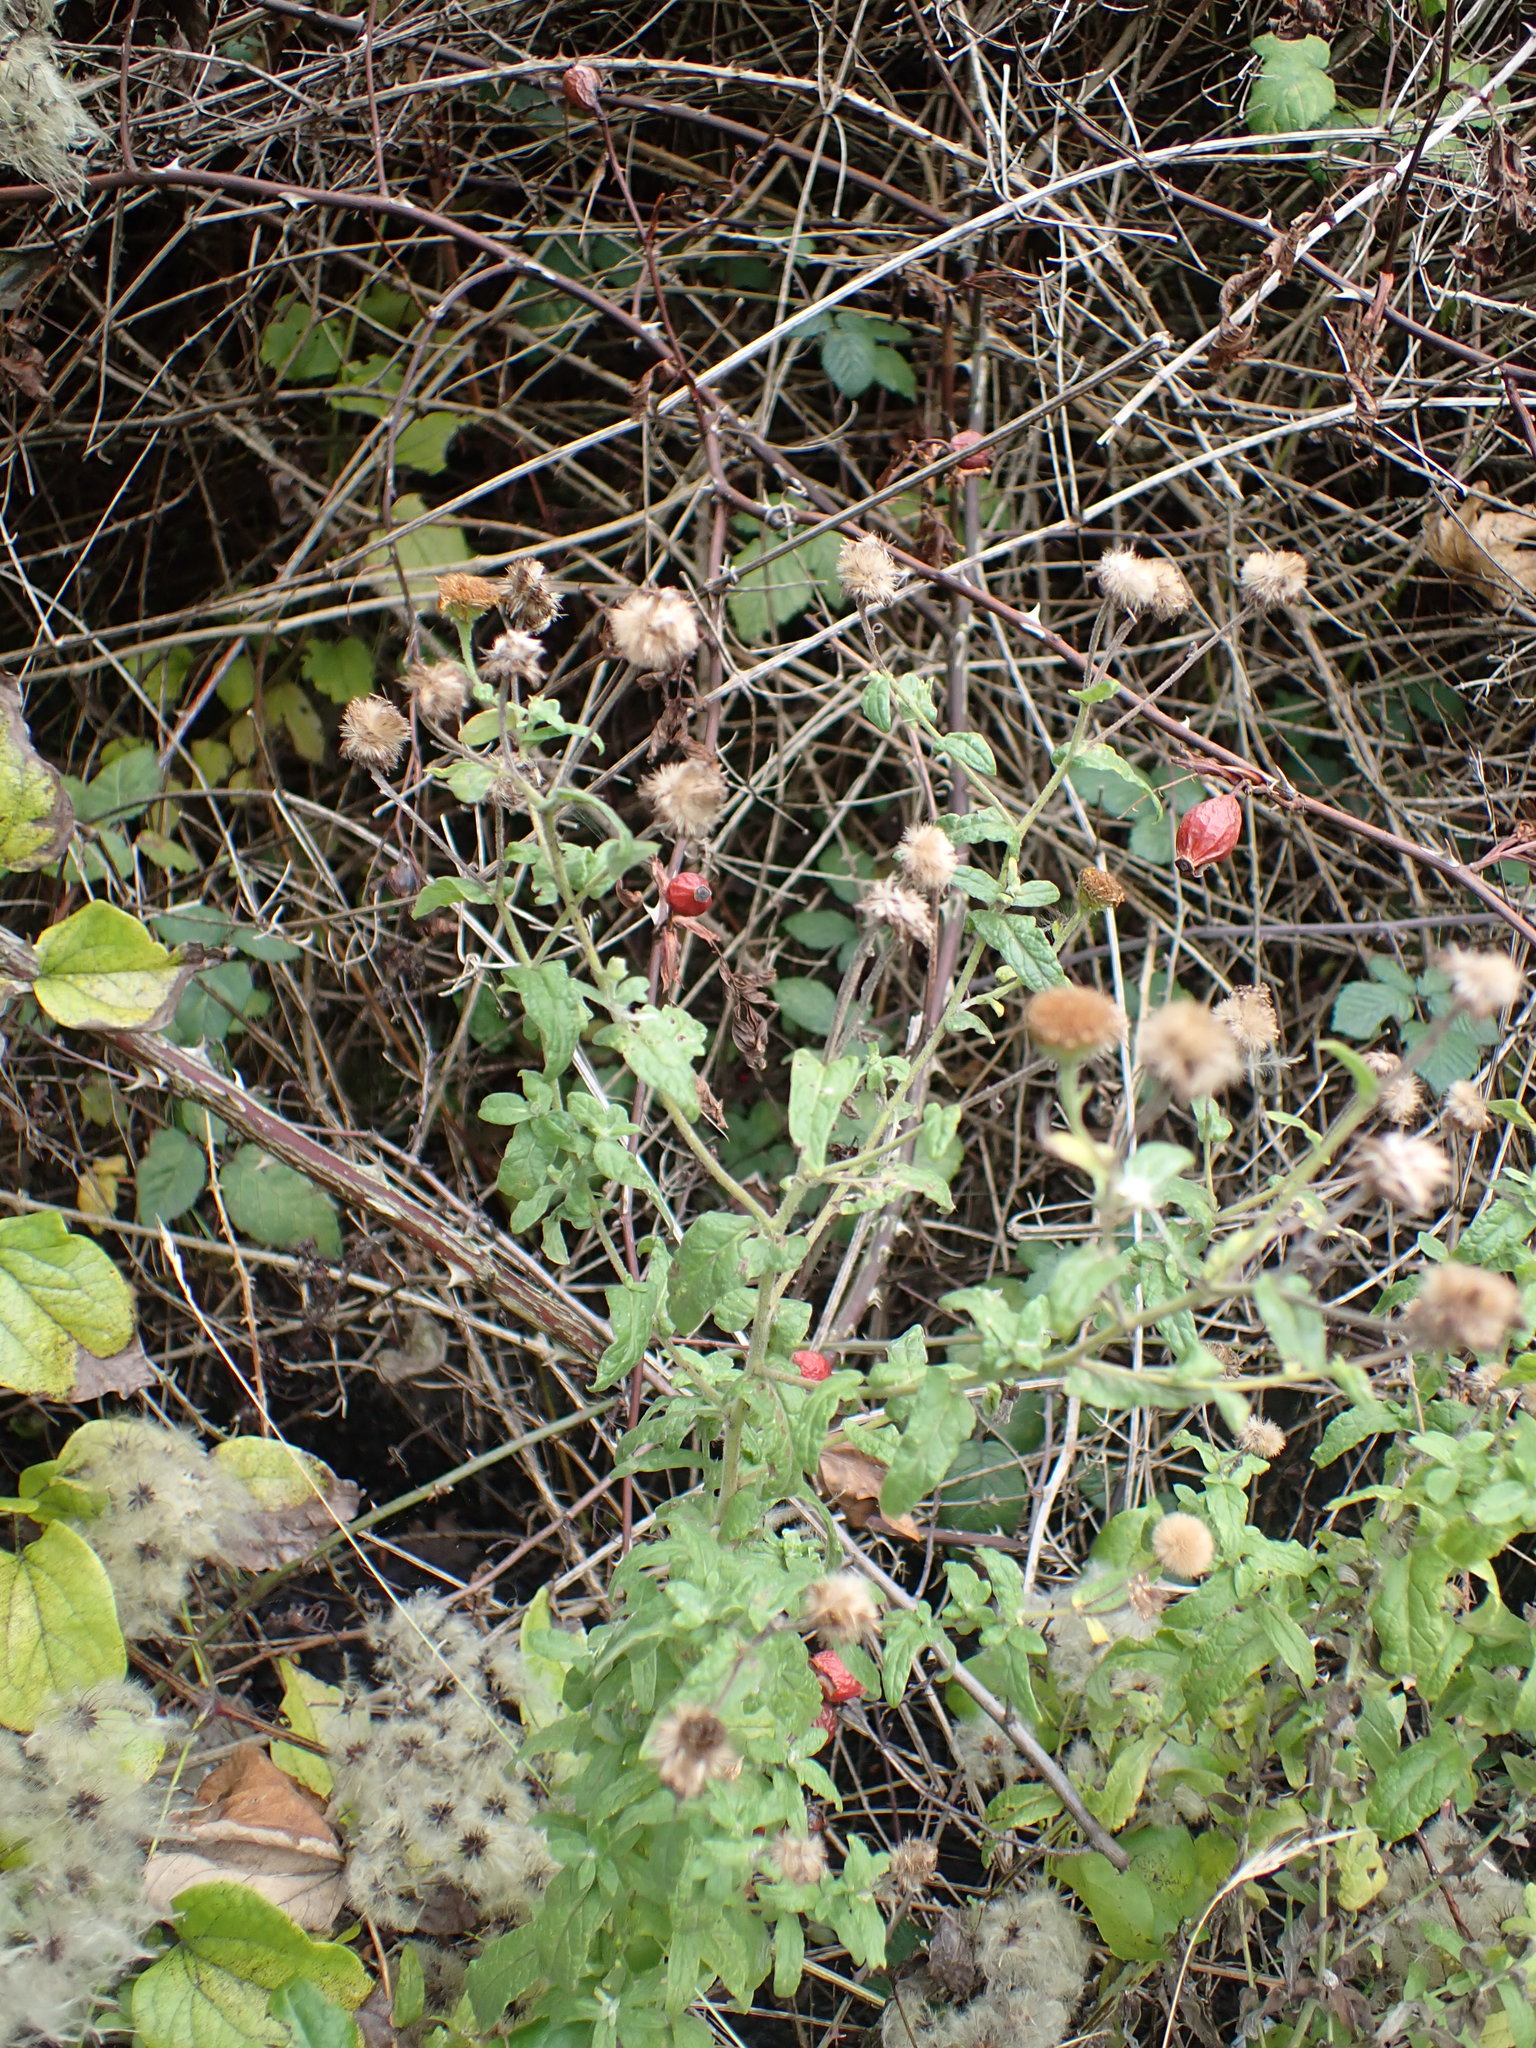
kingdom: Plantae
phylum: Tracheophyta
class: Magnoliopsida
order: Asterales
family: Asteraceae
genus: Pulicaria
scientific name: Pulicaria dysenterica
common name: Common fleabane
